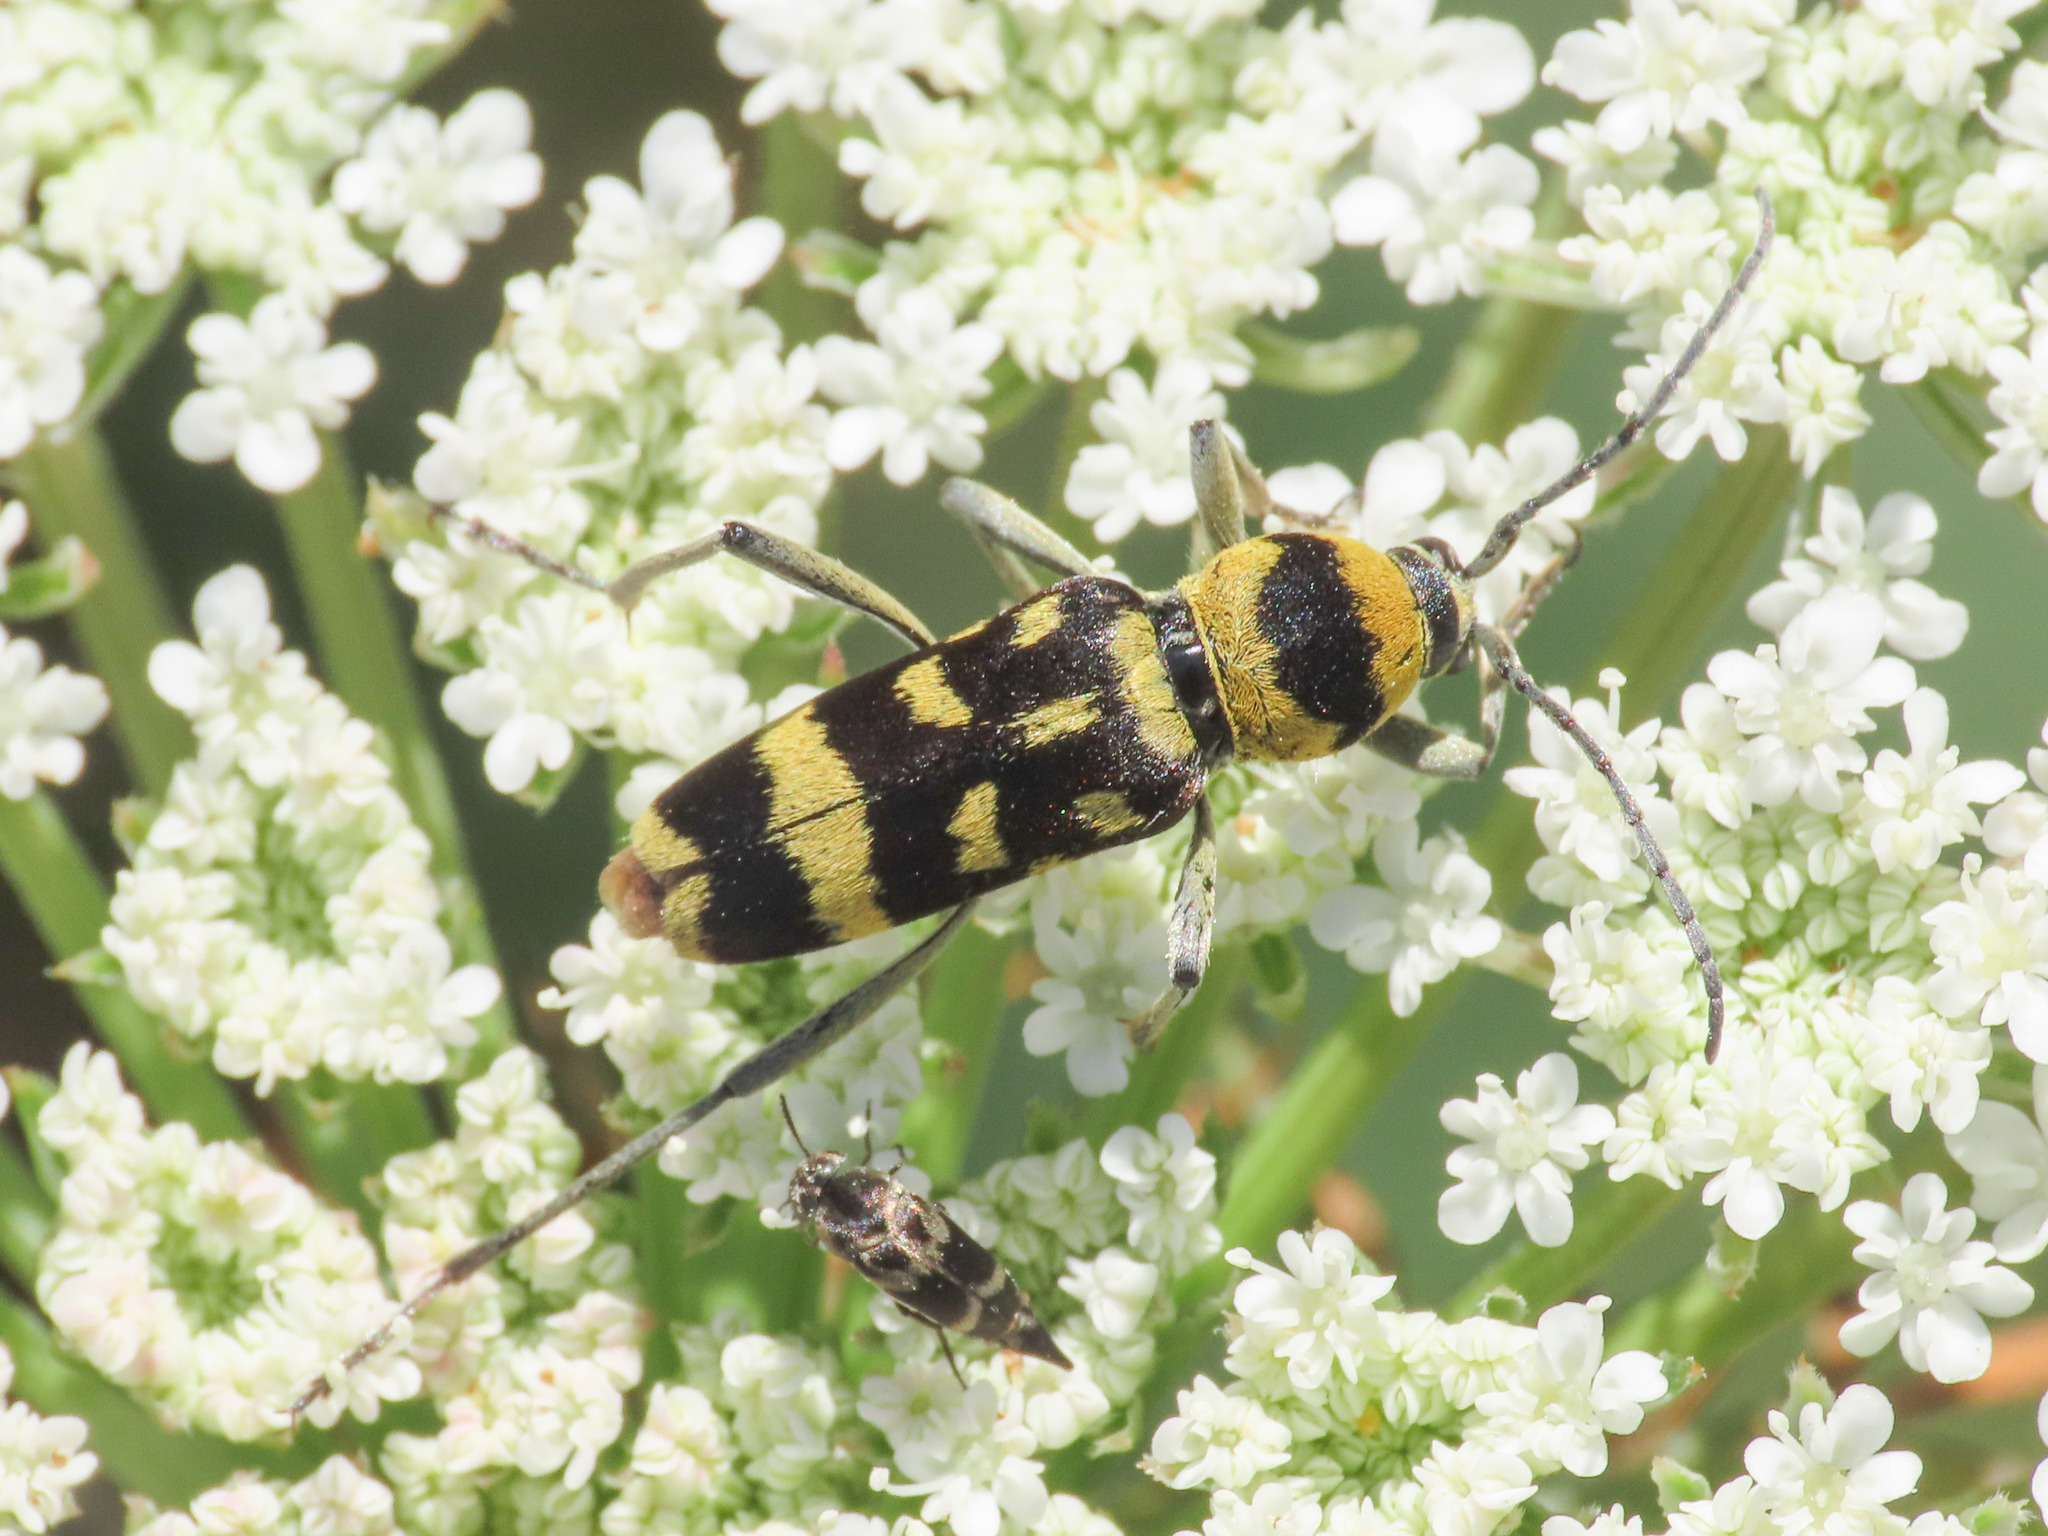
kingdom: Animalia
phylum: Arthropoda
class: Insecta
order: Coleoptera
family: Cerambycidae
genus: Chlorophorus
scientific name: Chlorophorus varius
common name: Grape wood borer
